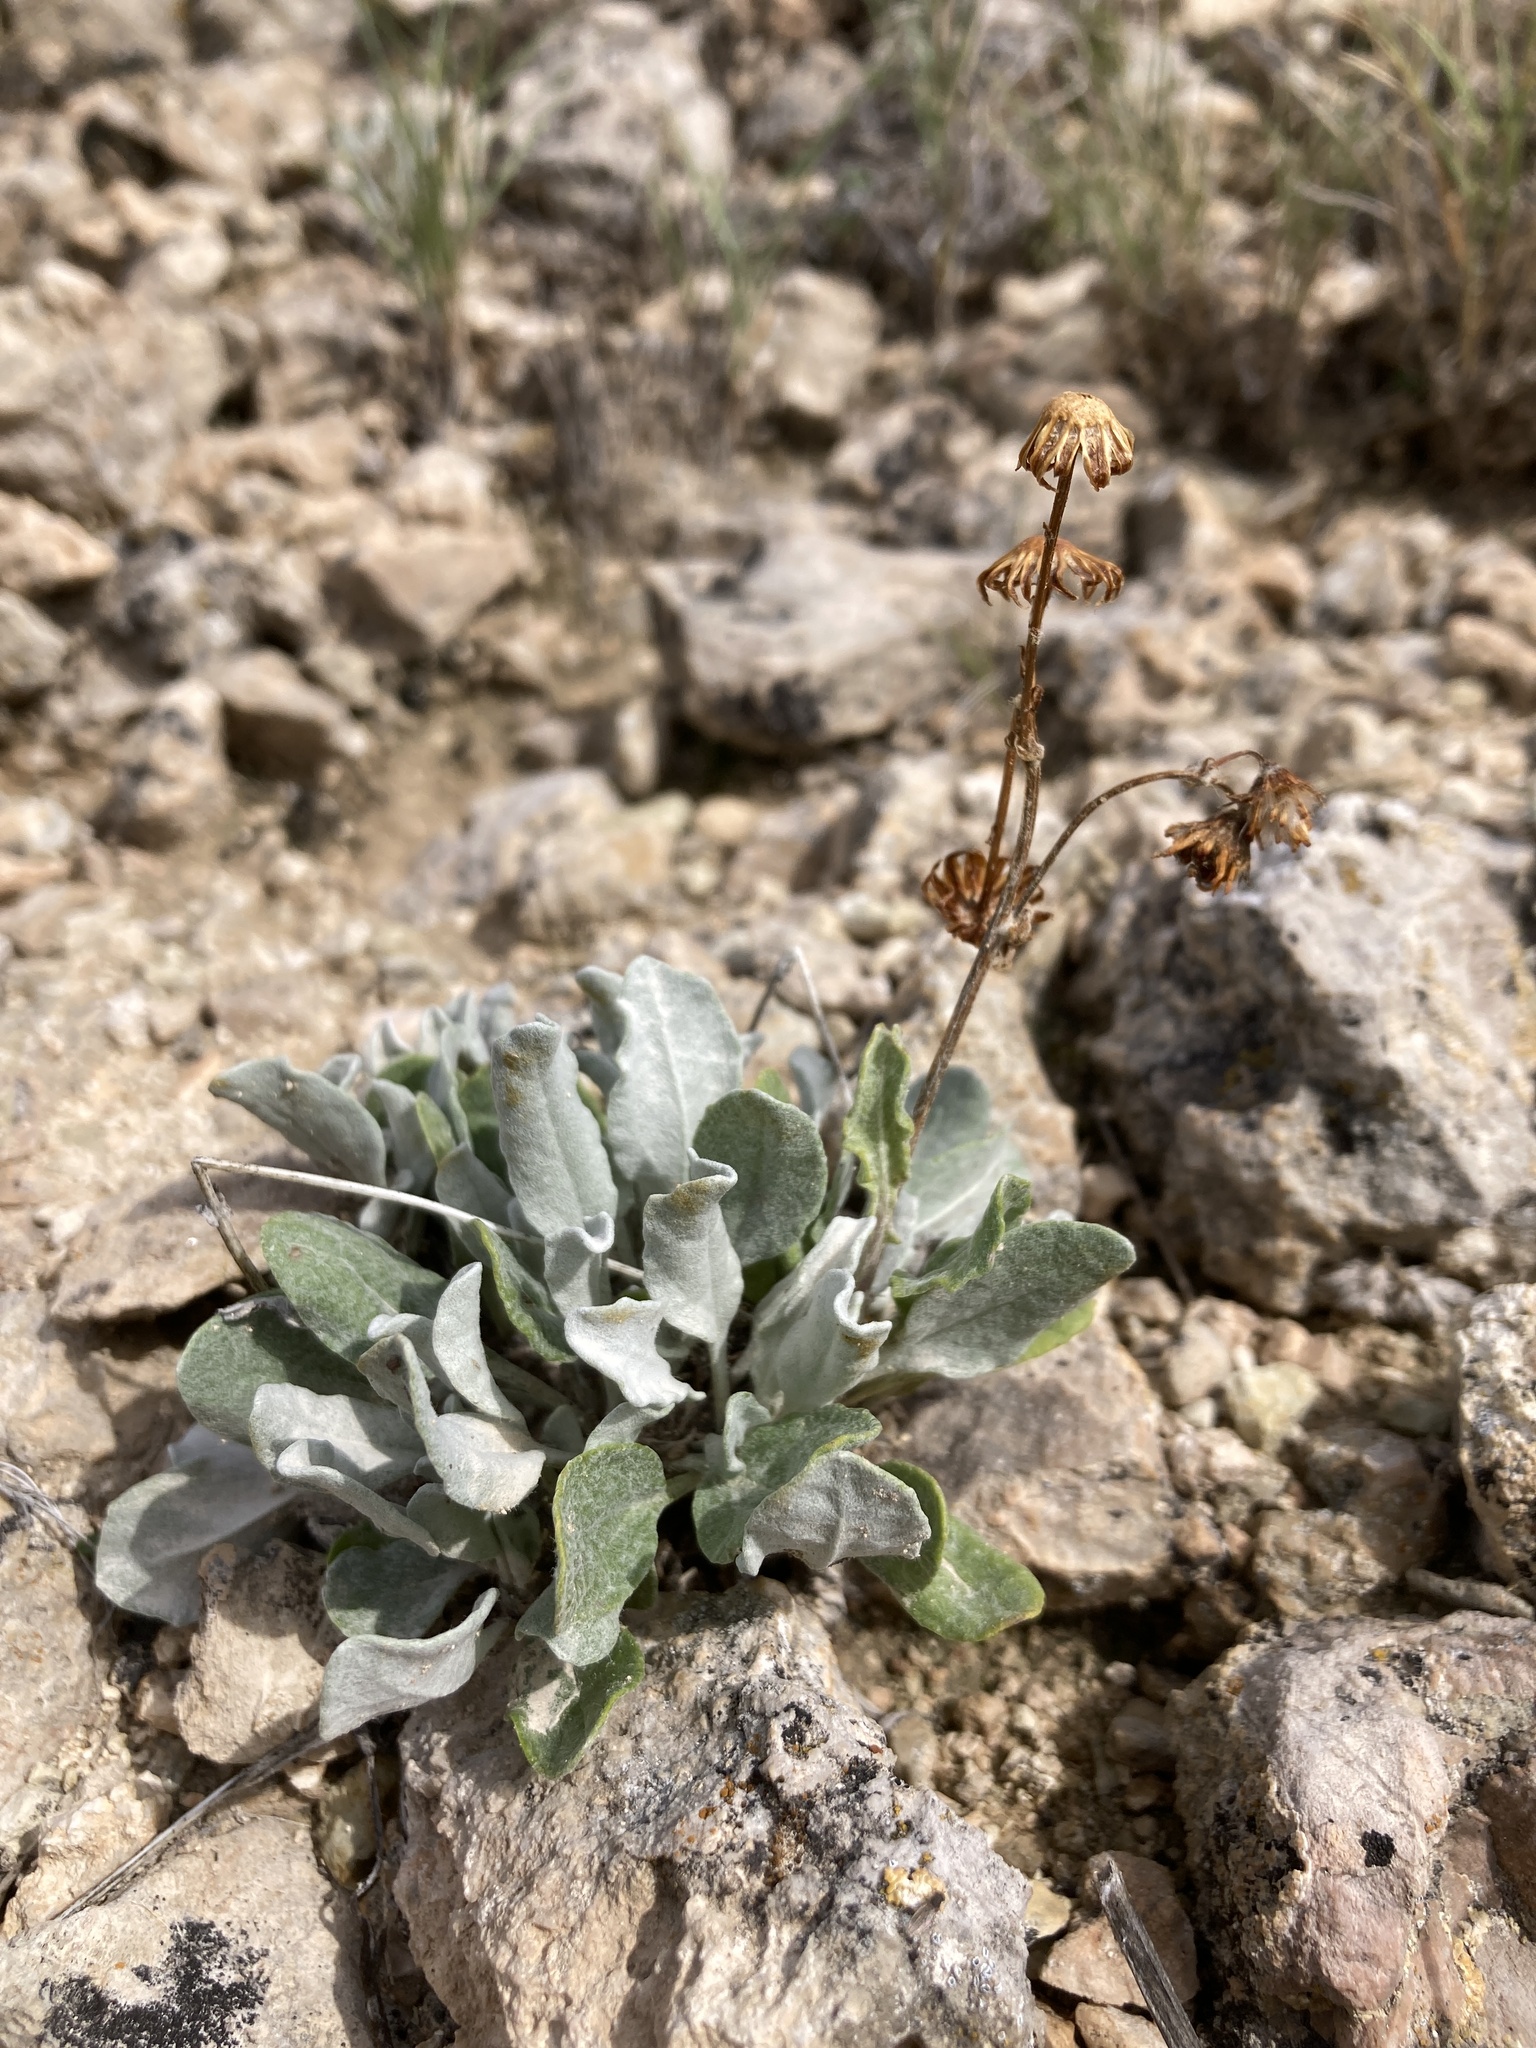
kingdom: Plantae
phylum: Tracheophyta
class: Magnoliopsida
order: Asterales
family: Asteraceae
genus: Packera
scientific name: Packera cana
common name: Woolly groundsel
